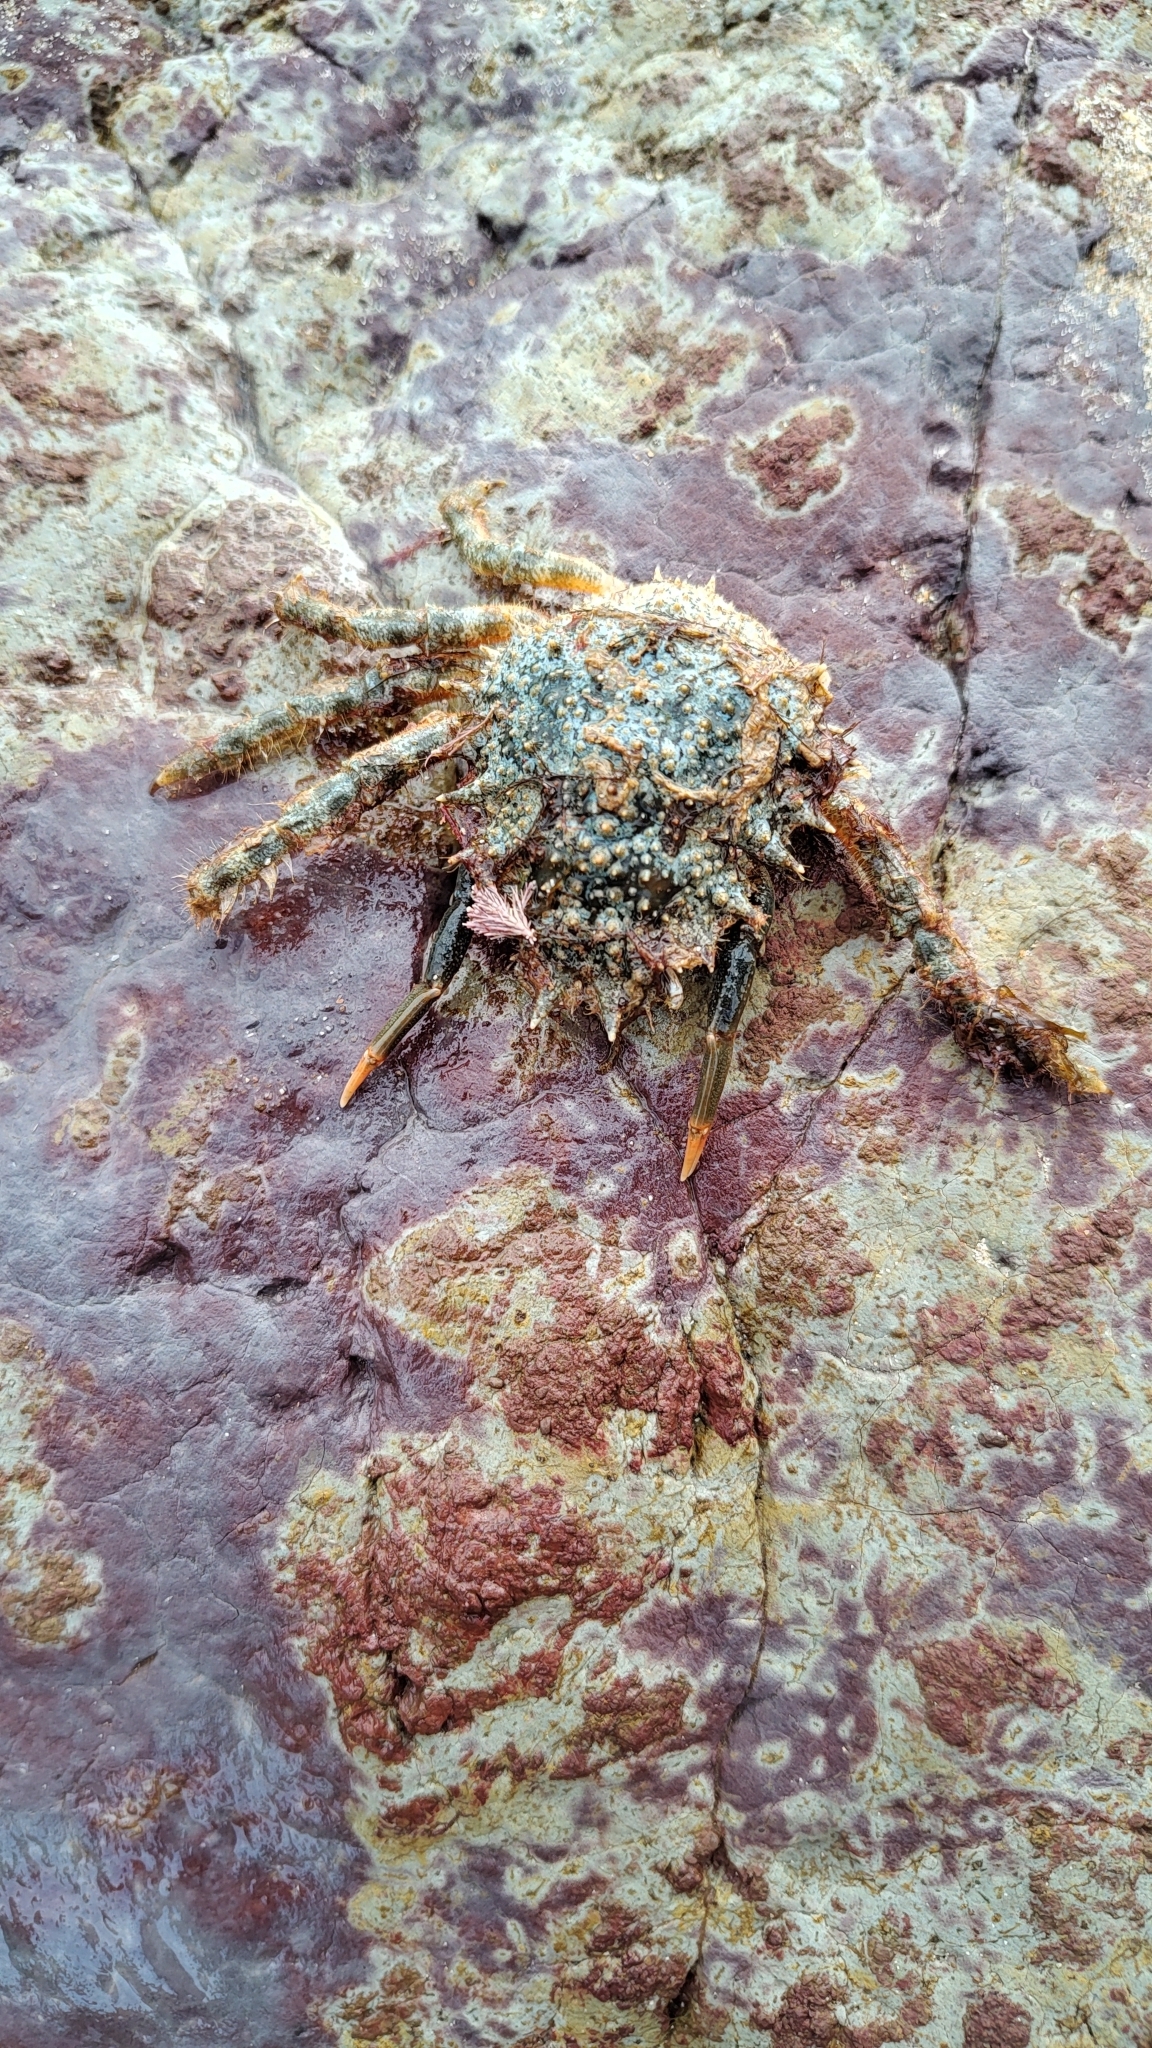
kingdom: Animalia
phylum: Arthropoda
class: Malacostraca
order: Decapoda
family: Majidae
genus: Maja
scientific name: Maja brachydactyla
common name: Common spider crab
